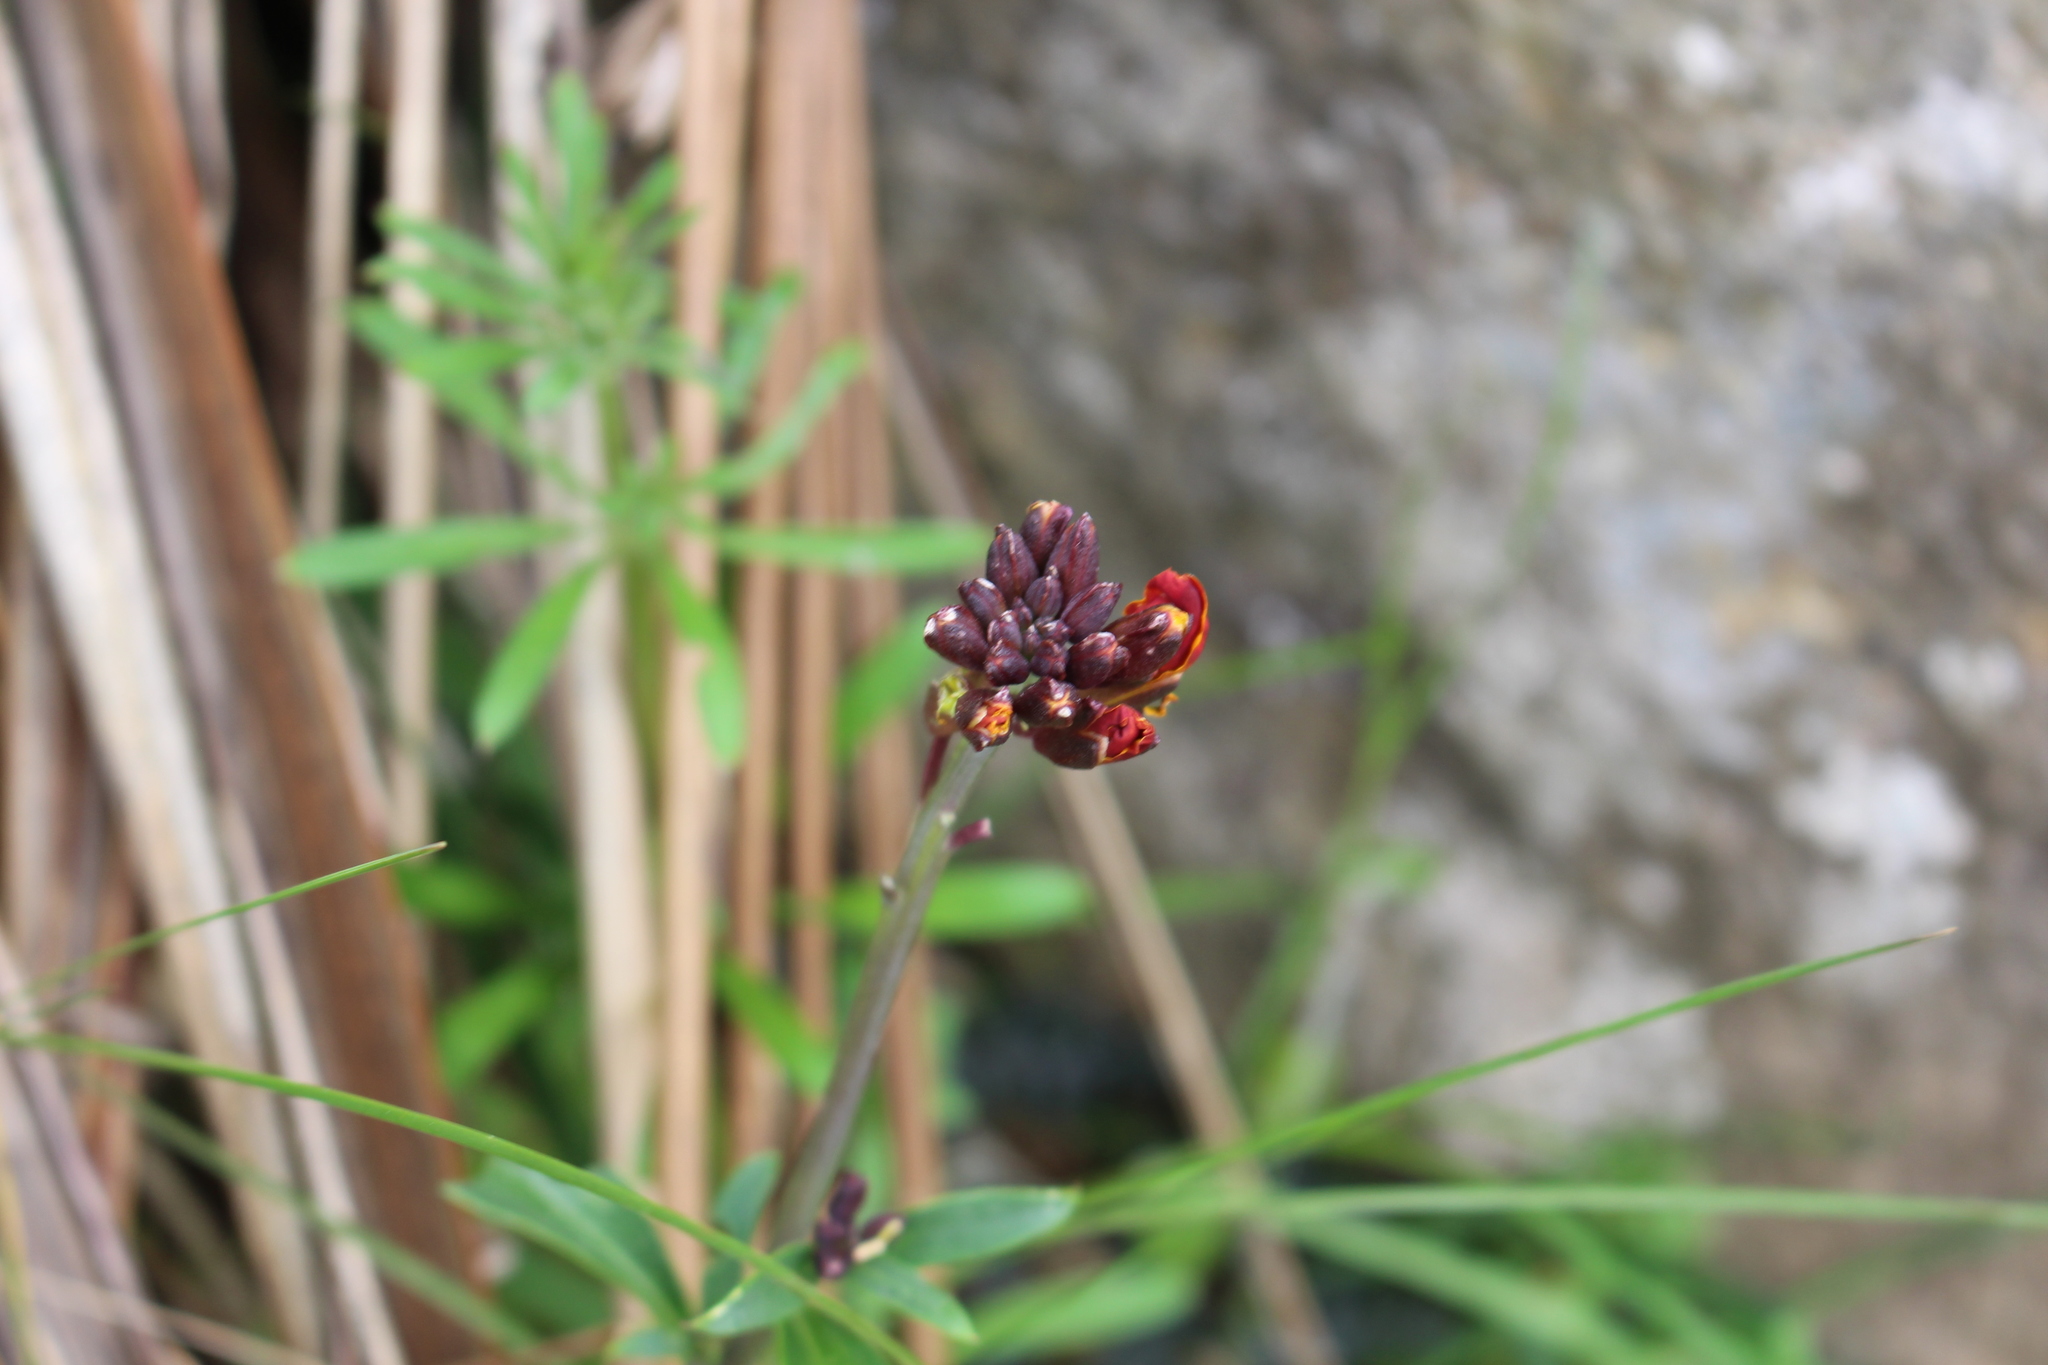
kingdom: Plantae
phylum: Tracheophyta
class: Magnoliopsida
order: Brassicales
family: Brassicaceae
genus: Erysimum
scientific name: Erysimum cheiri
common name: Wallflower
